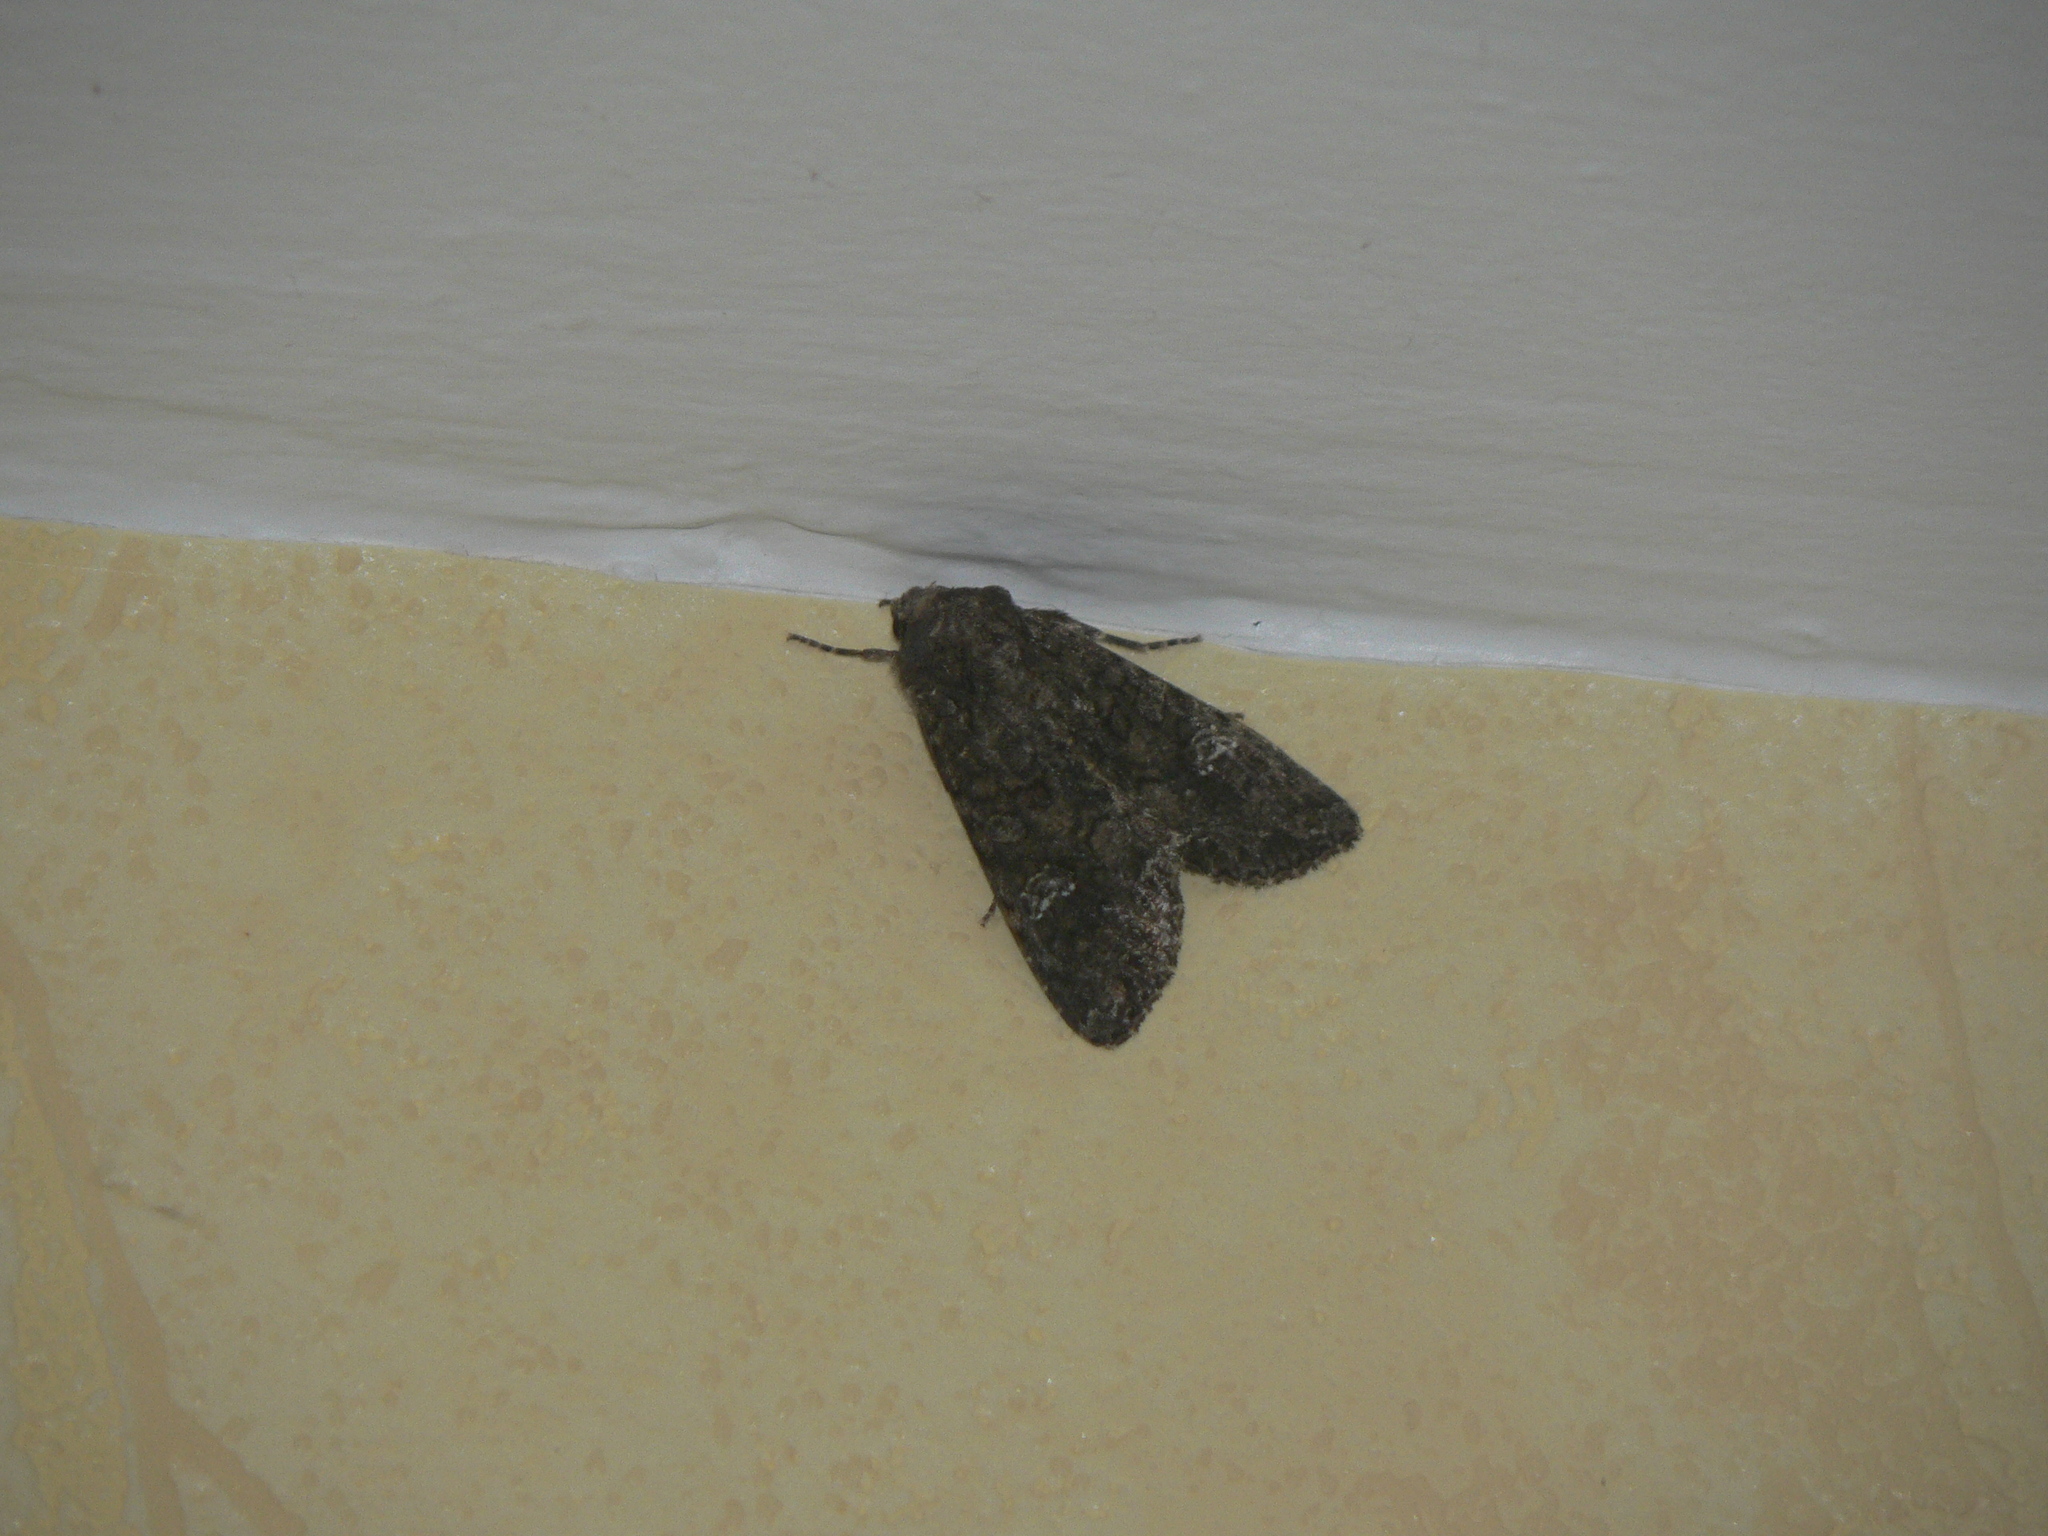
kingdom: Animalia
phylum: Arthropoda
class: Insecta
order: Lepidoptera
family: Noctuidae
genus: Mamestra
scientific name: Mamestra brassicae
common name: Cabbage moth
